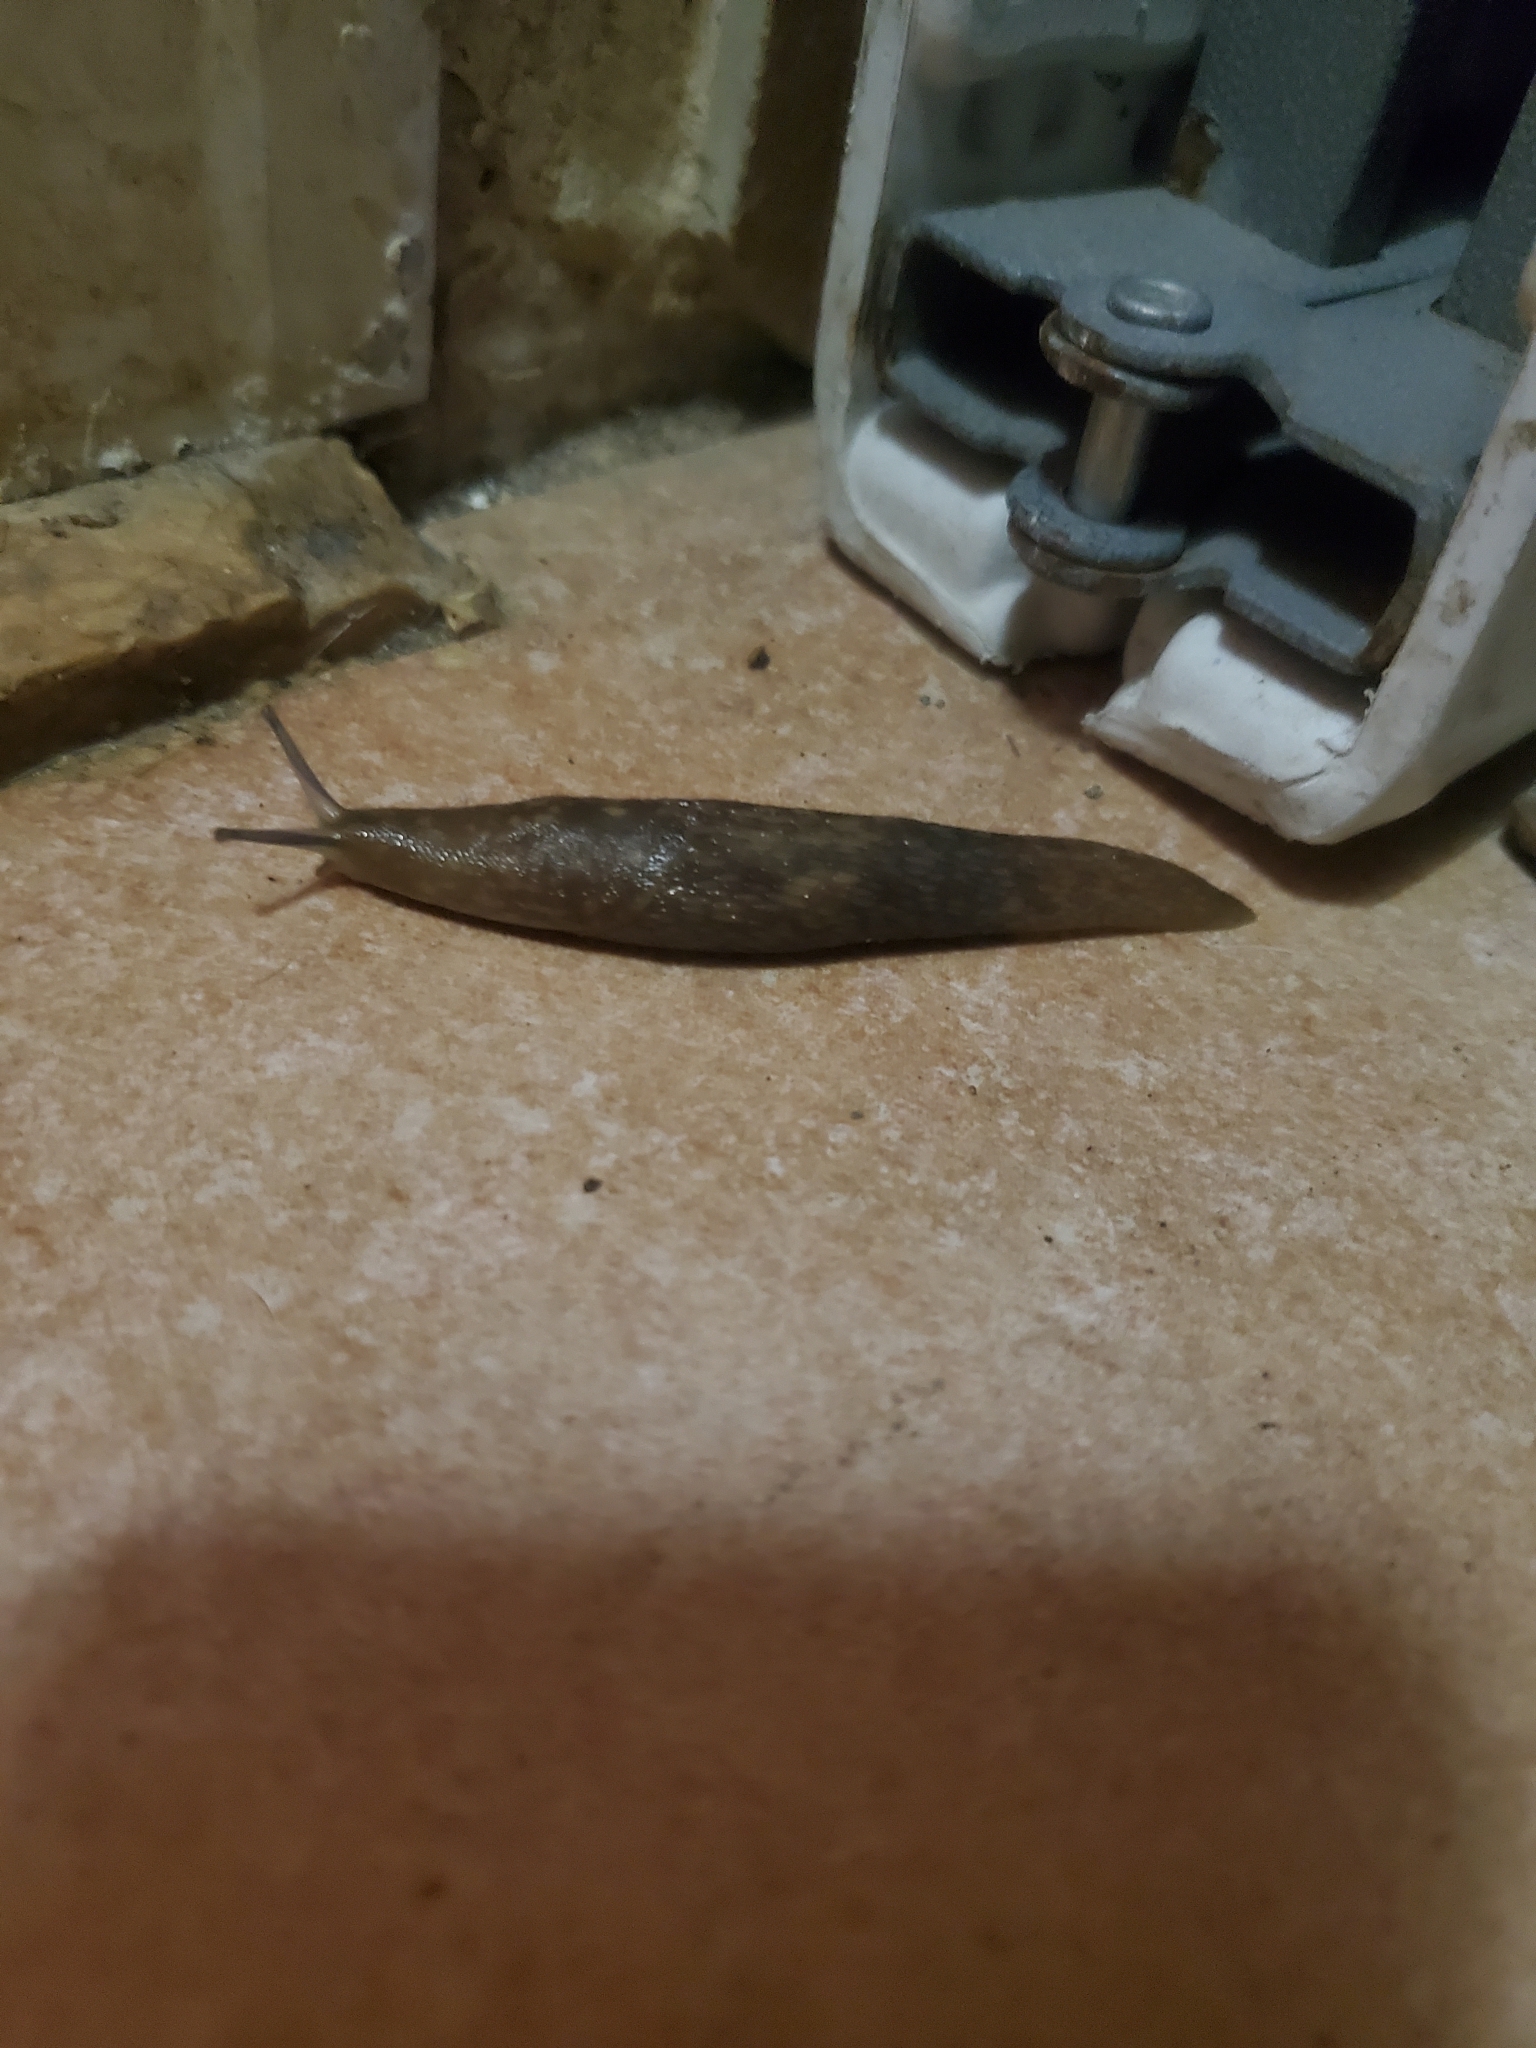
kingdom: Animalia
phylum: Mollusca
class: Gastropoda
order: Stylommatophora
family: Limacidae
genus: Limacus
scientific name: Limacus flavus
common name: Yellow gardenslug
